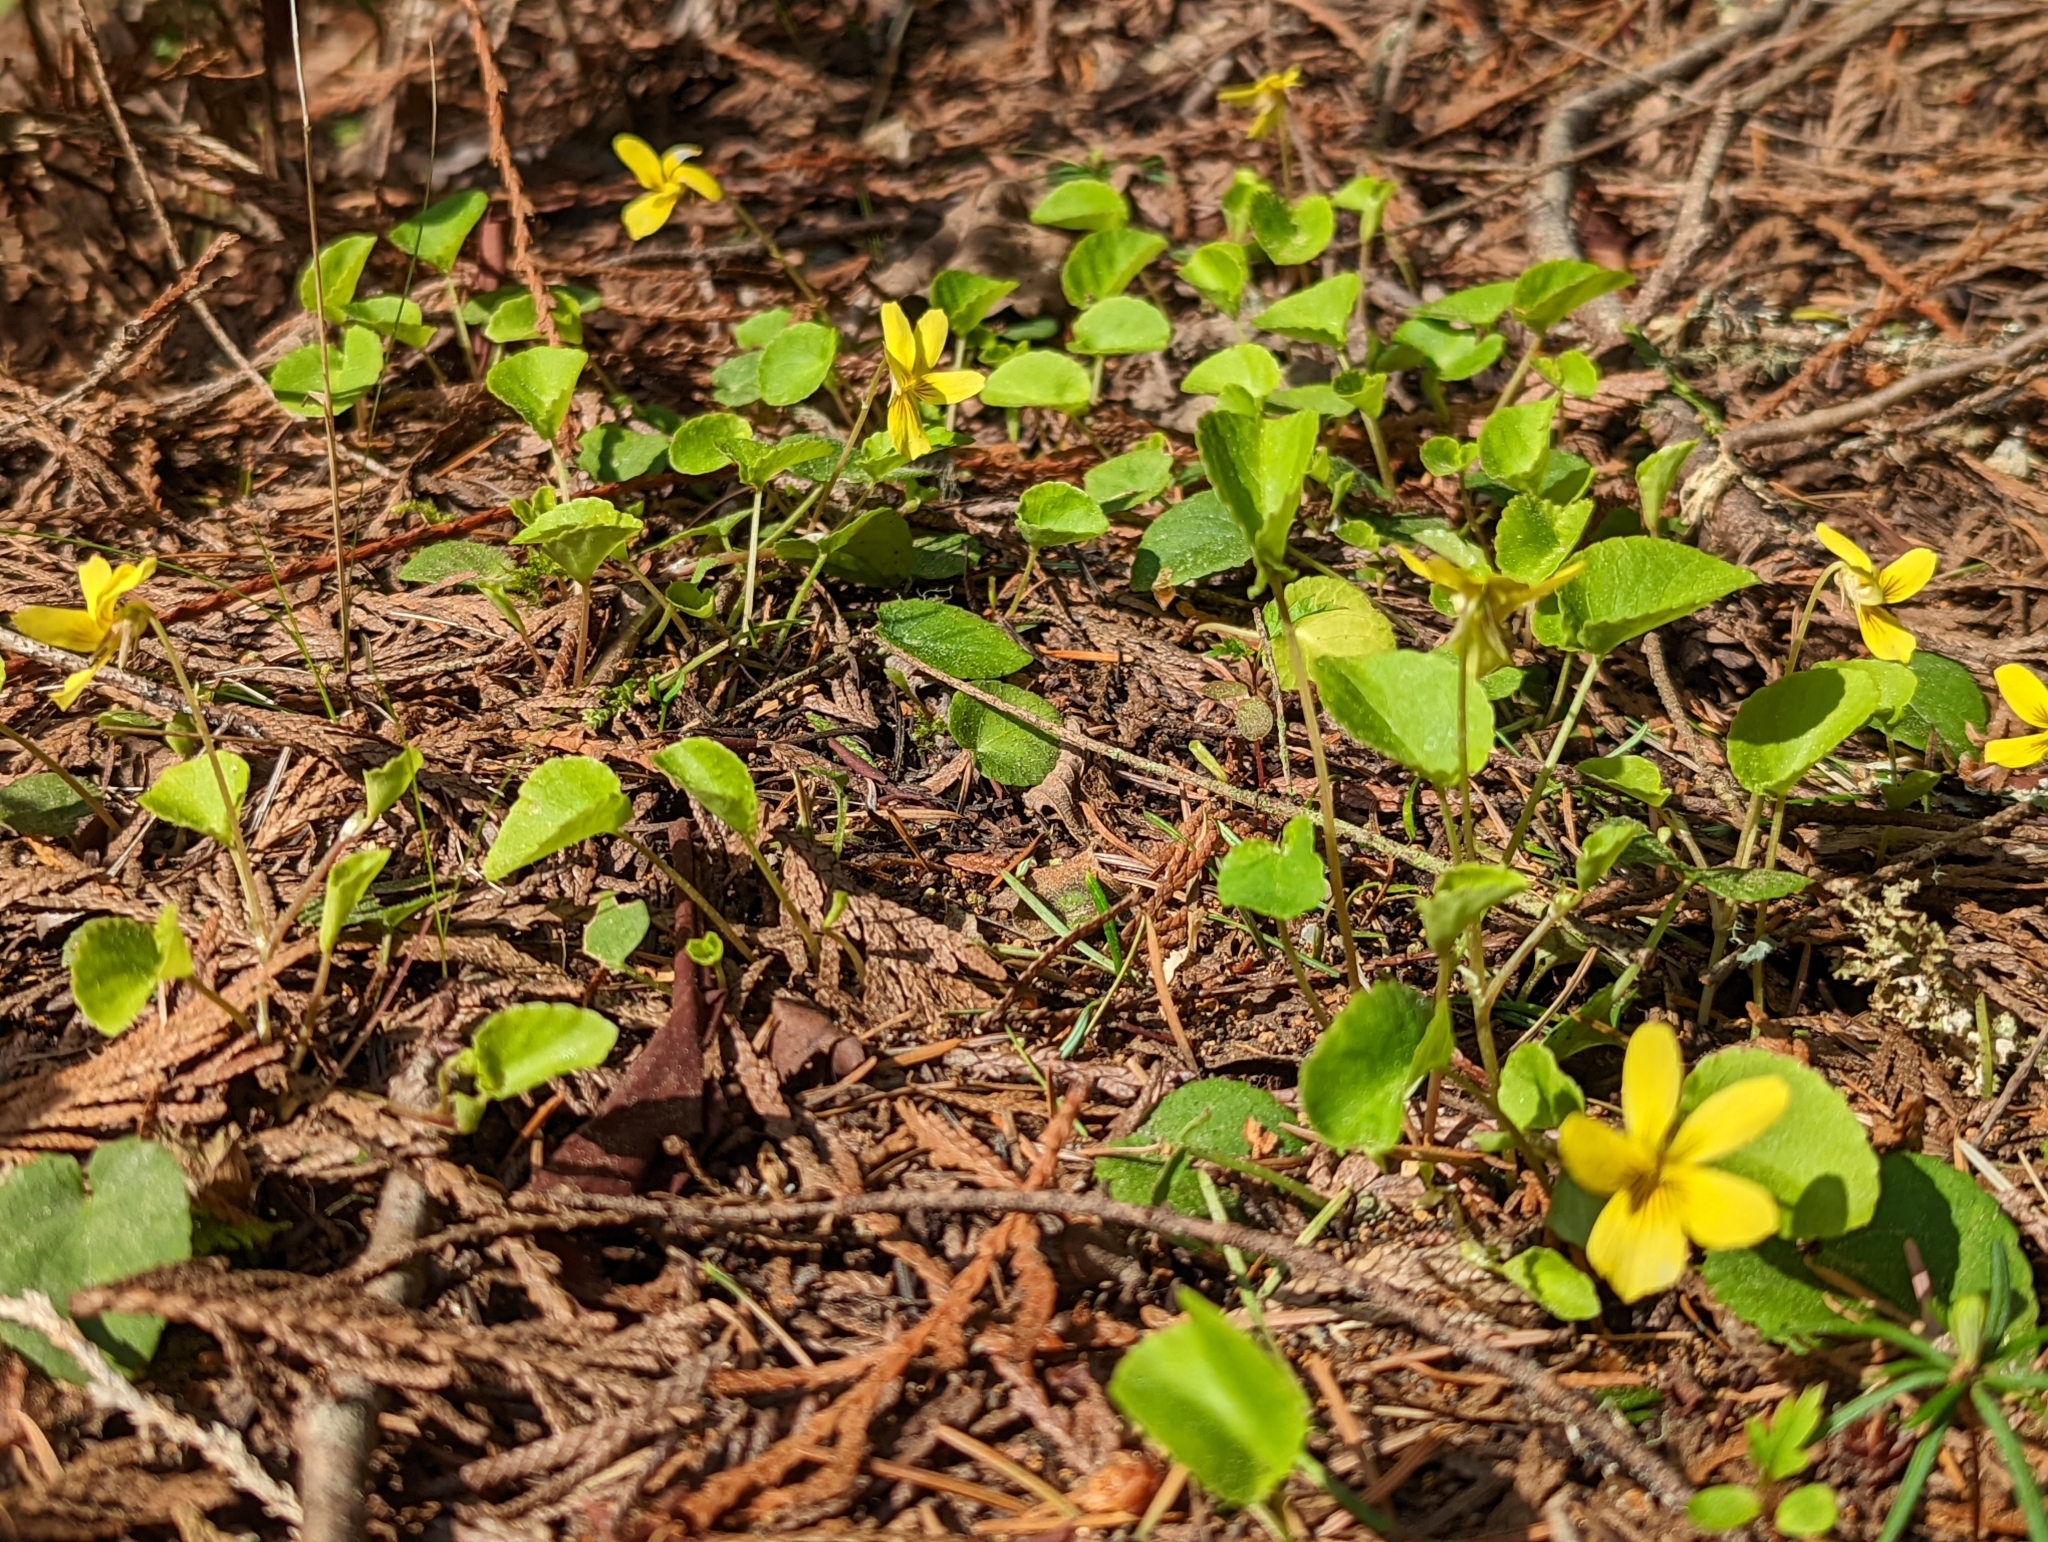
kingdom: Plantae
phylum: Tracheophyta
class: Magnoliopsida
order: Malpighiales
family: Violaceae
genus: Viola
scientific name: Viola sempervirens
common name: Evergreen violet
